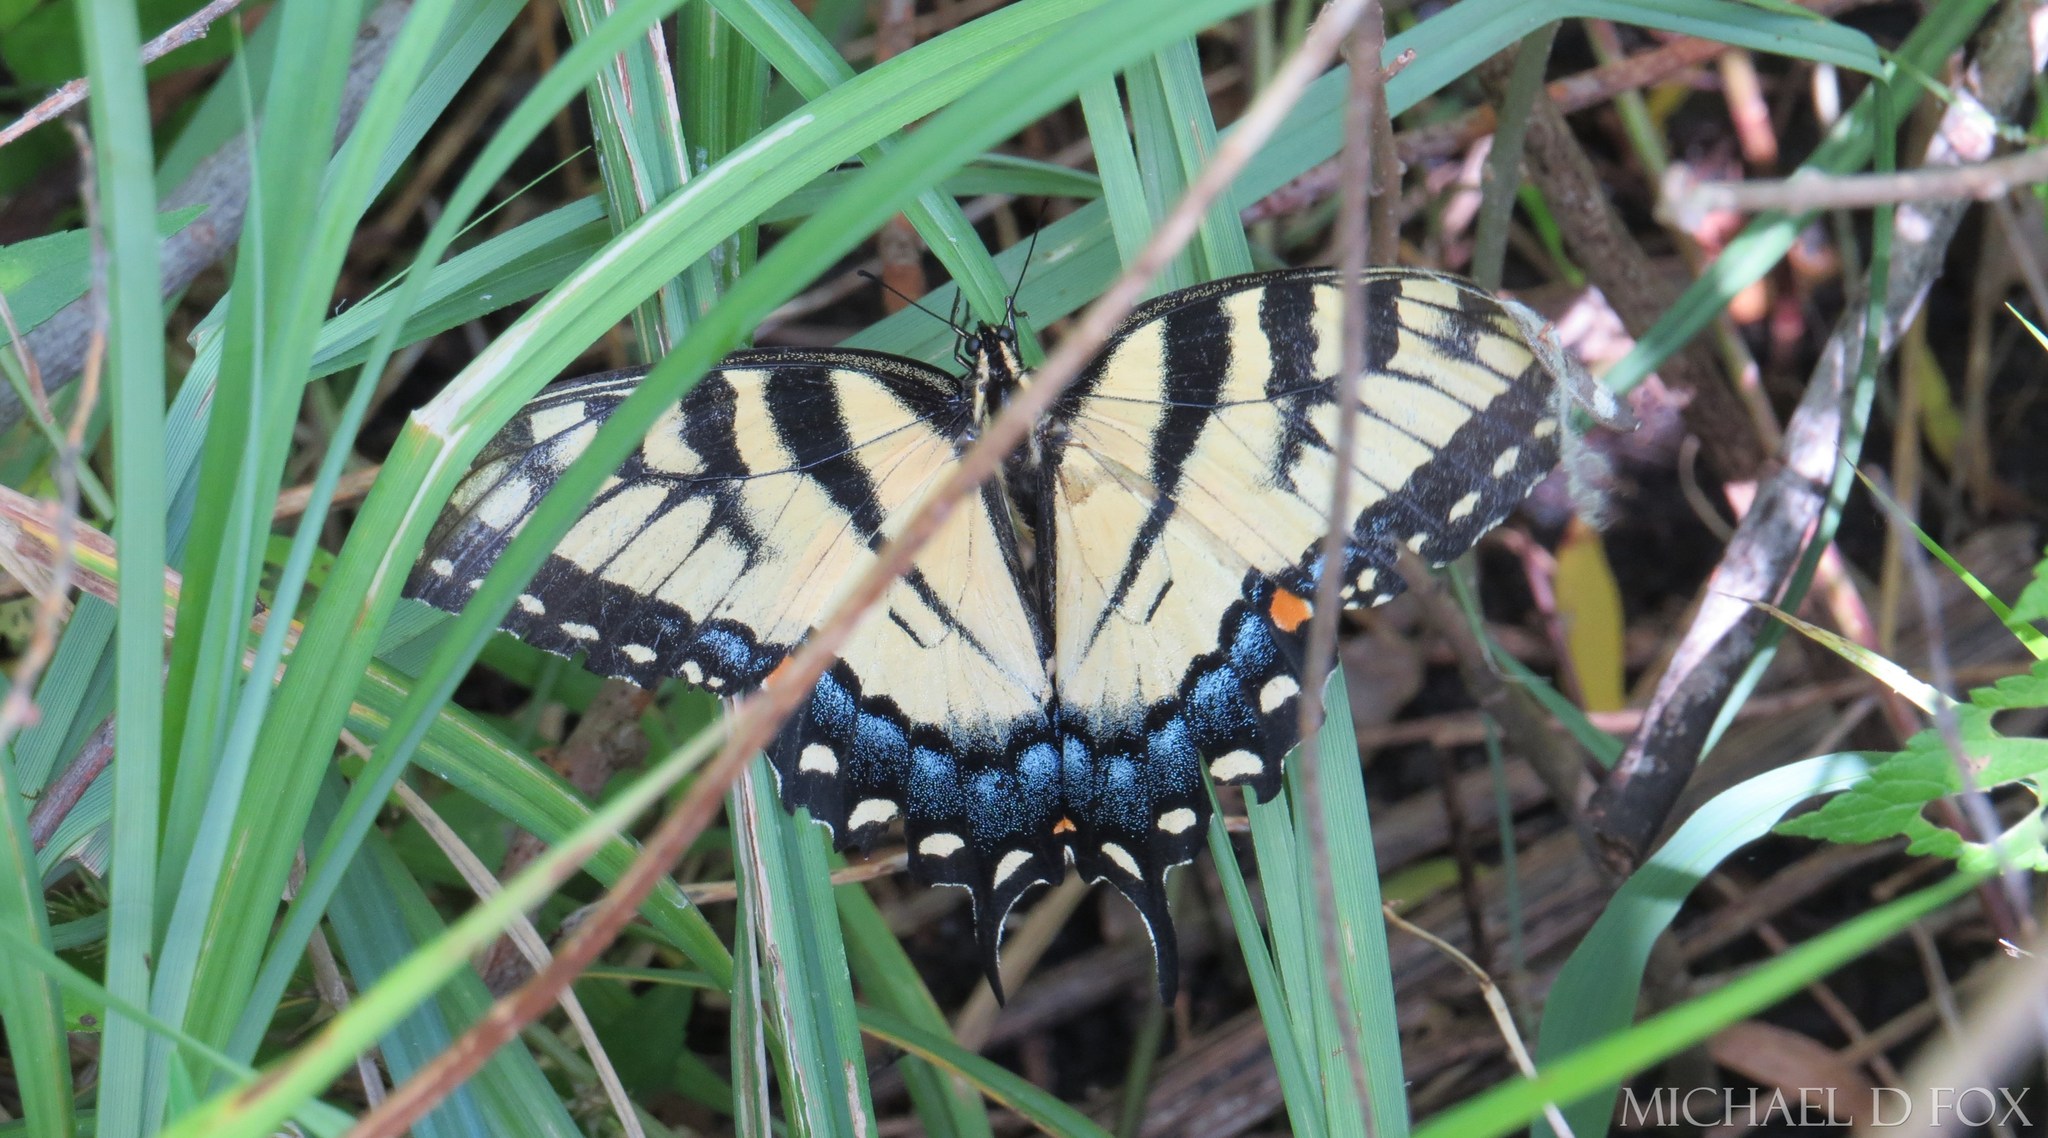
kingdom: Animalia
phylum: Arthropoda
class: Insecta
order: Lepidoptera
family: Papilionidae
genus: Papilio
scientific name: Papilio glaucus
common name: Tiger swallowtail
